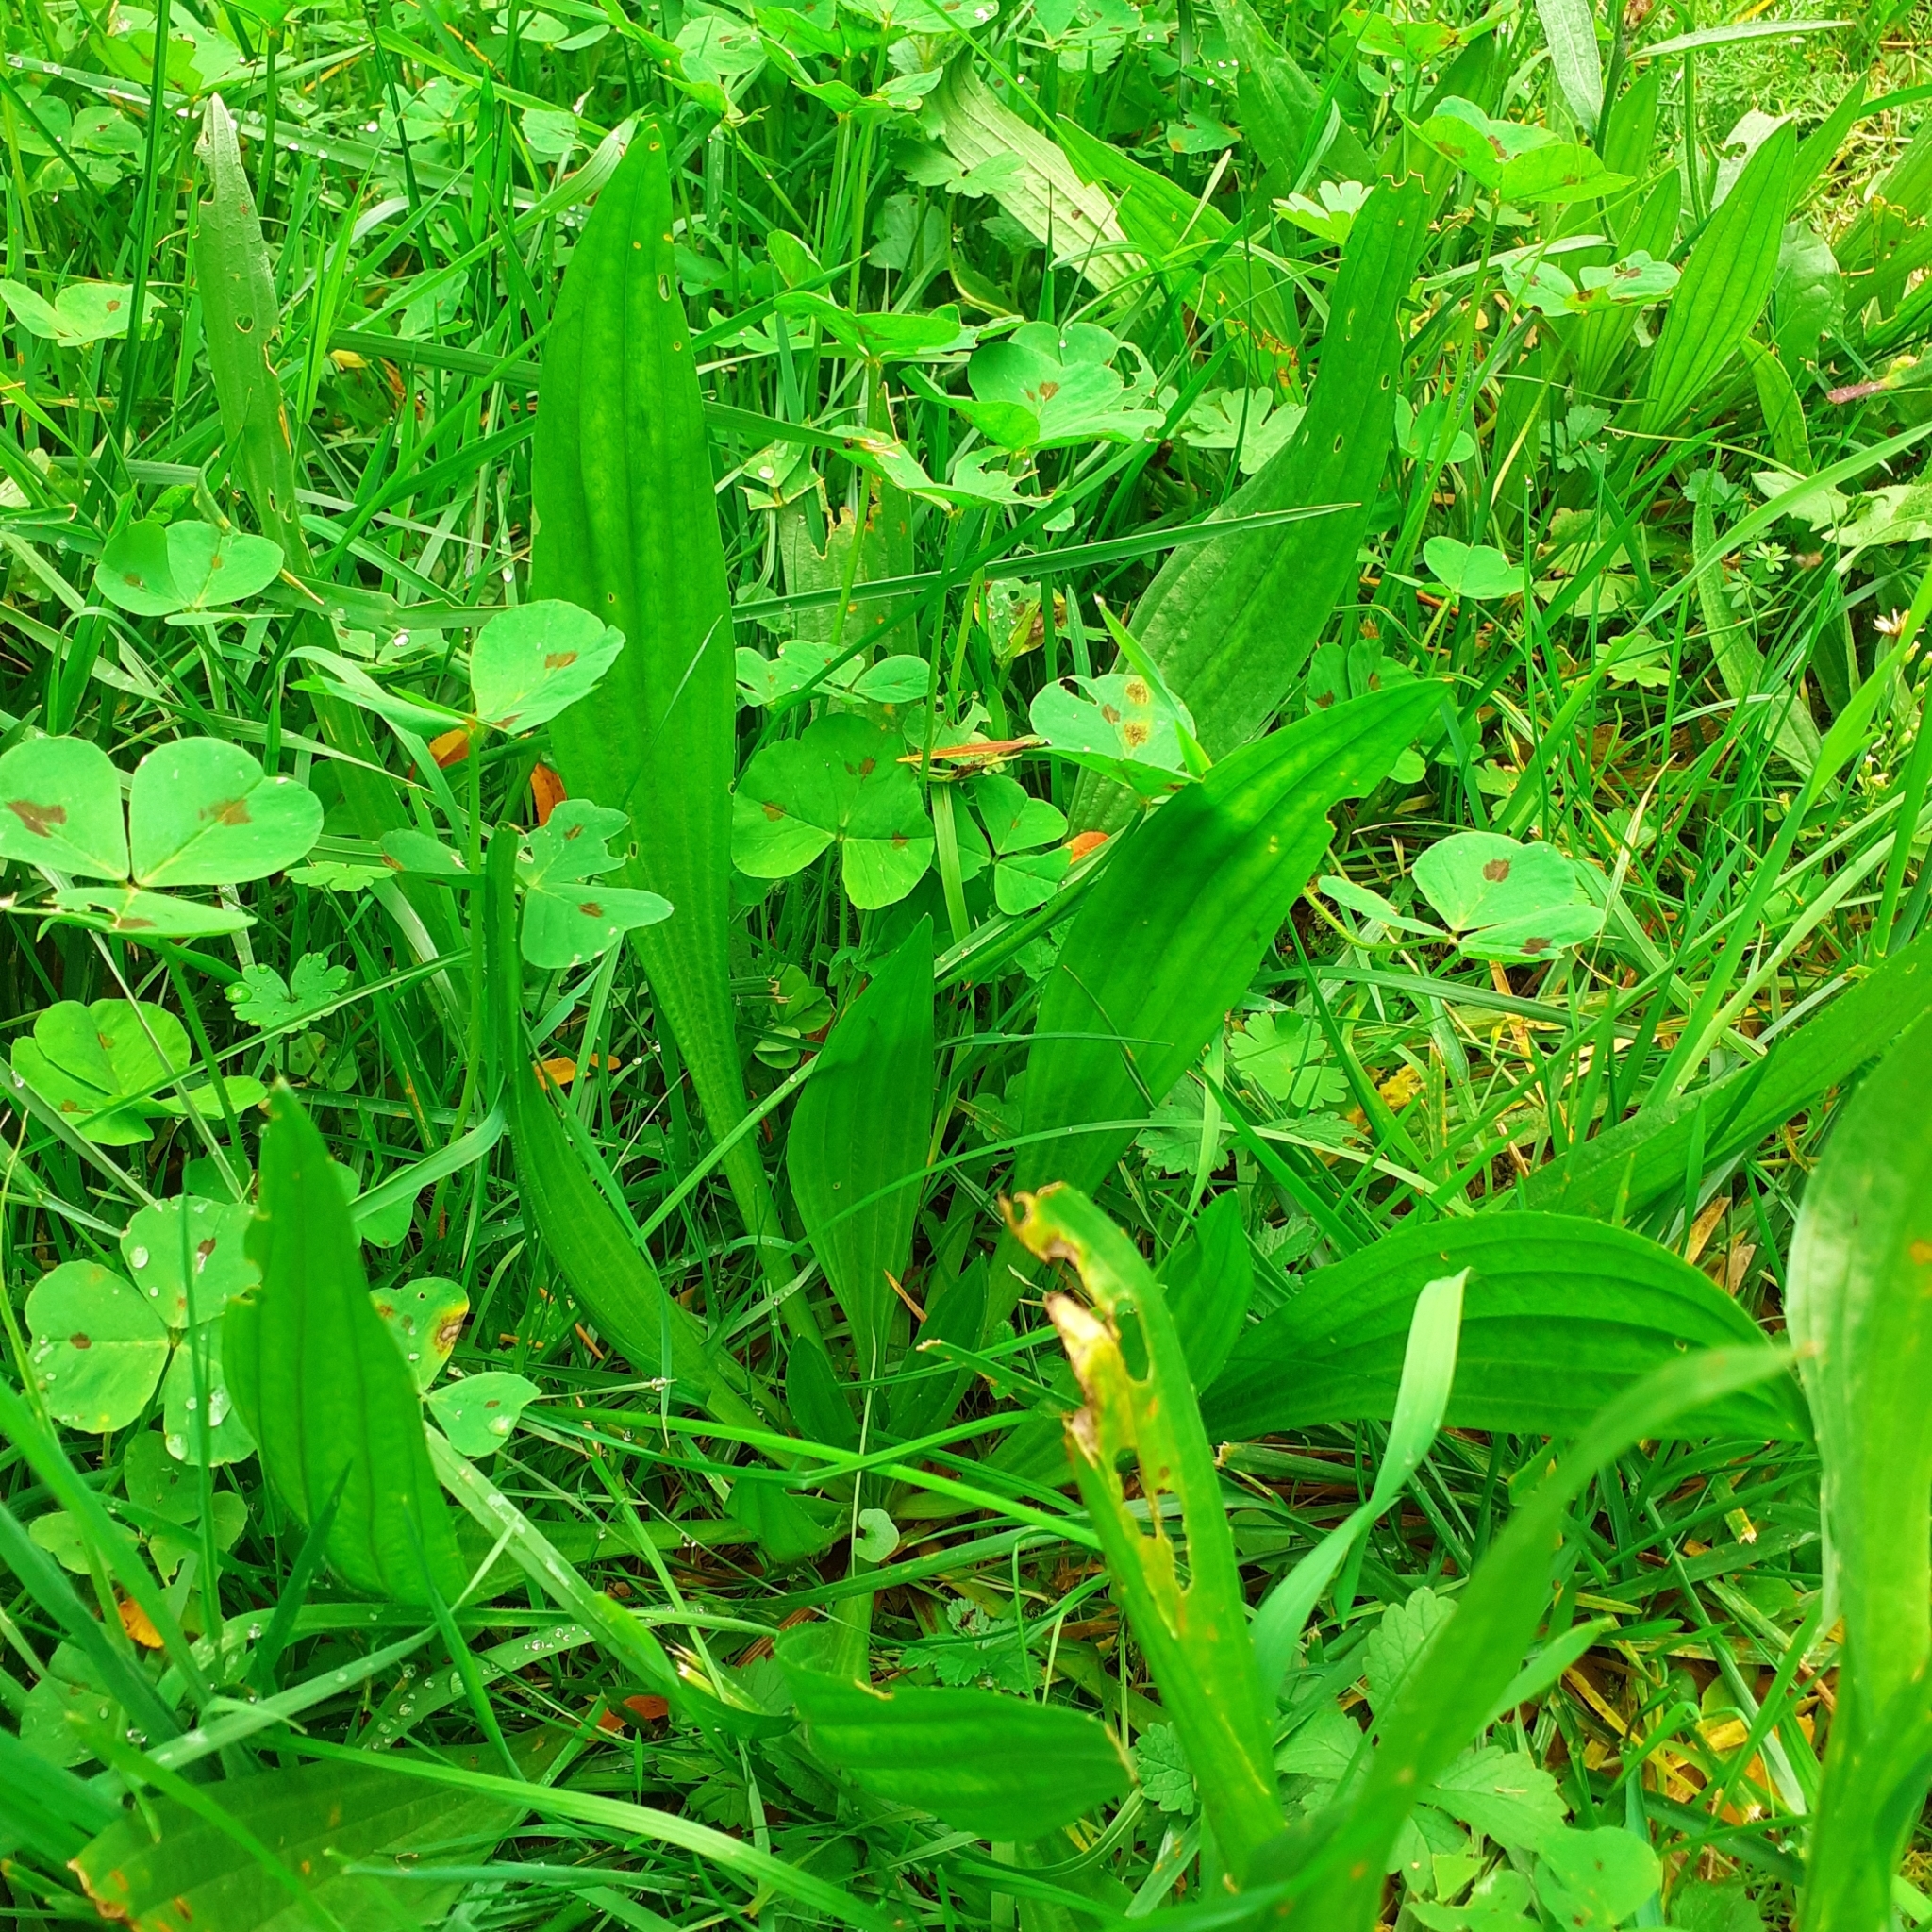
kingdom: Plantae
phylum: Tracheophyta
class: Magnoliopsida
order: Lamiales
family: Plantaginaceae
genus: Plantago
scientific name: Plantago lanceolata
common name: Ribwort plantain
